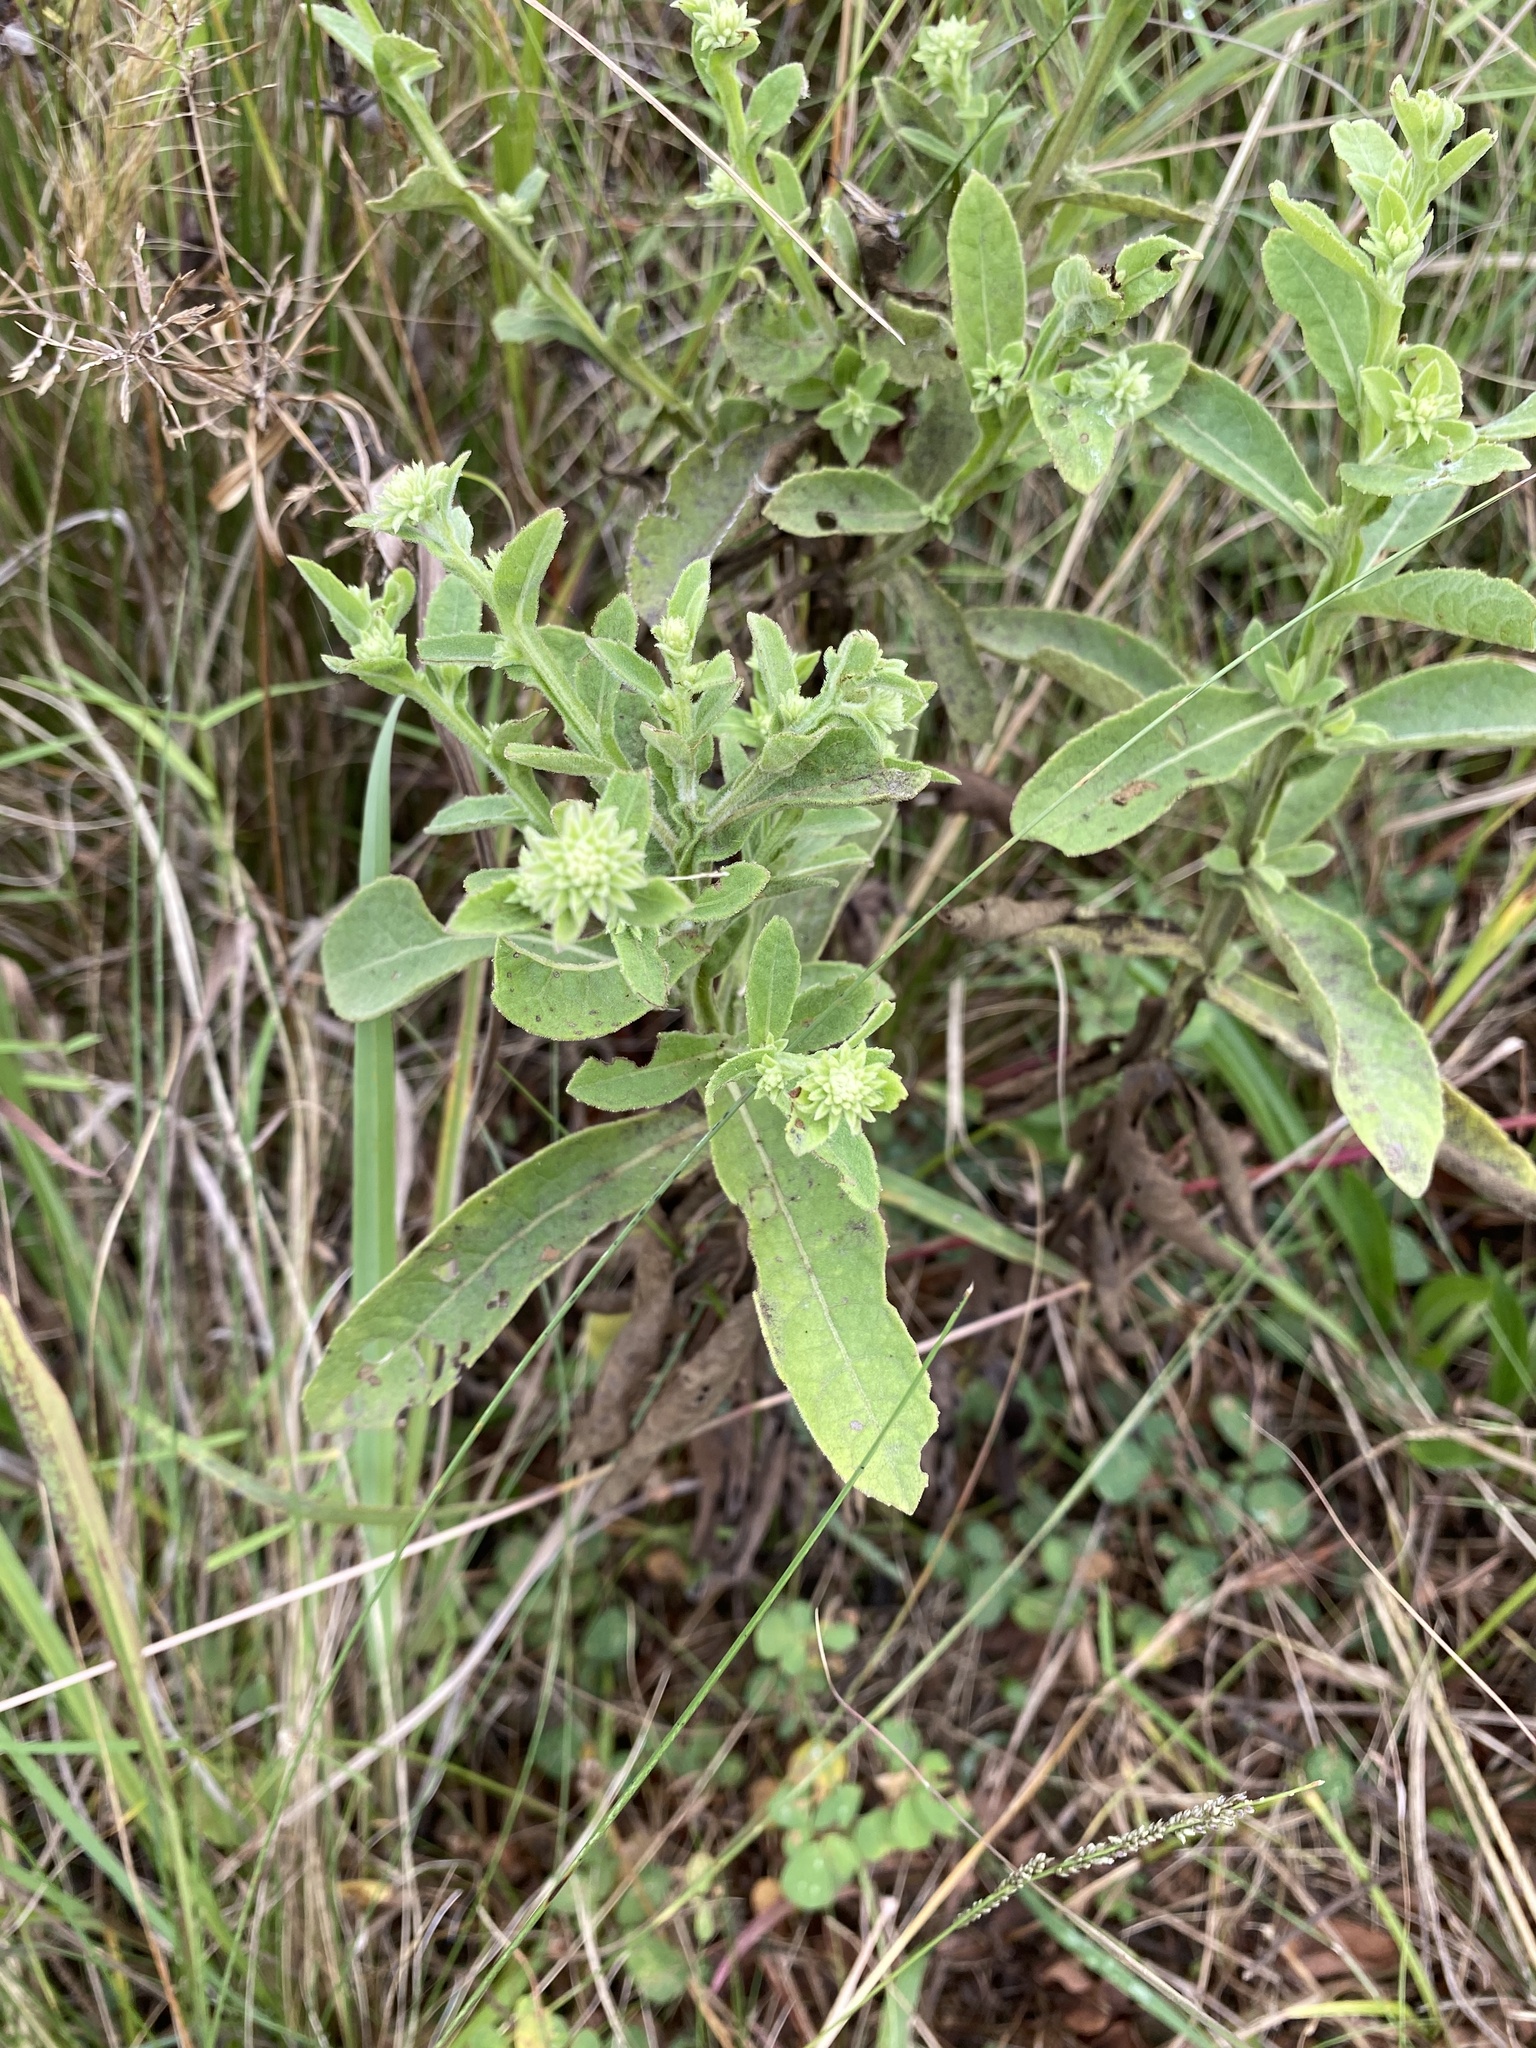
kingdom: Plantae
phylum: Tracheophyta
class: Magnoliopsida
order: Asterales
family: Asteraceae
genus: Laggera
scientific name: Laggera crispata
